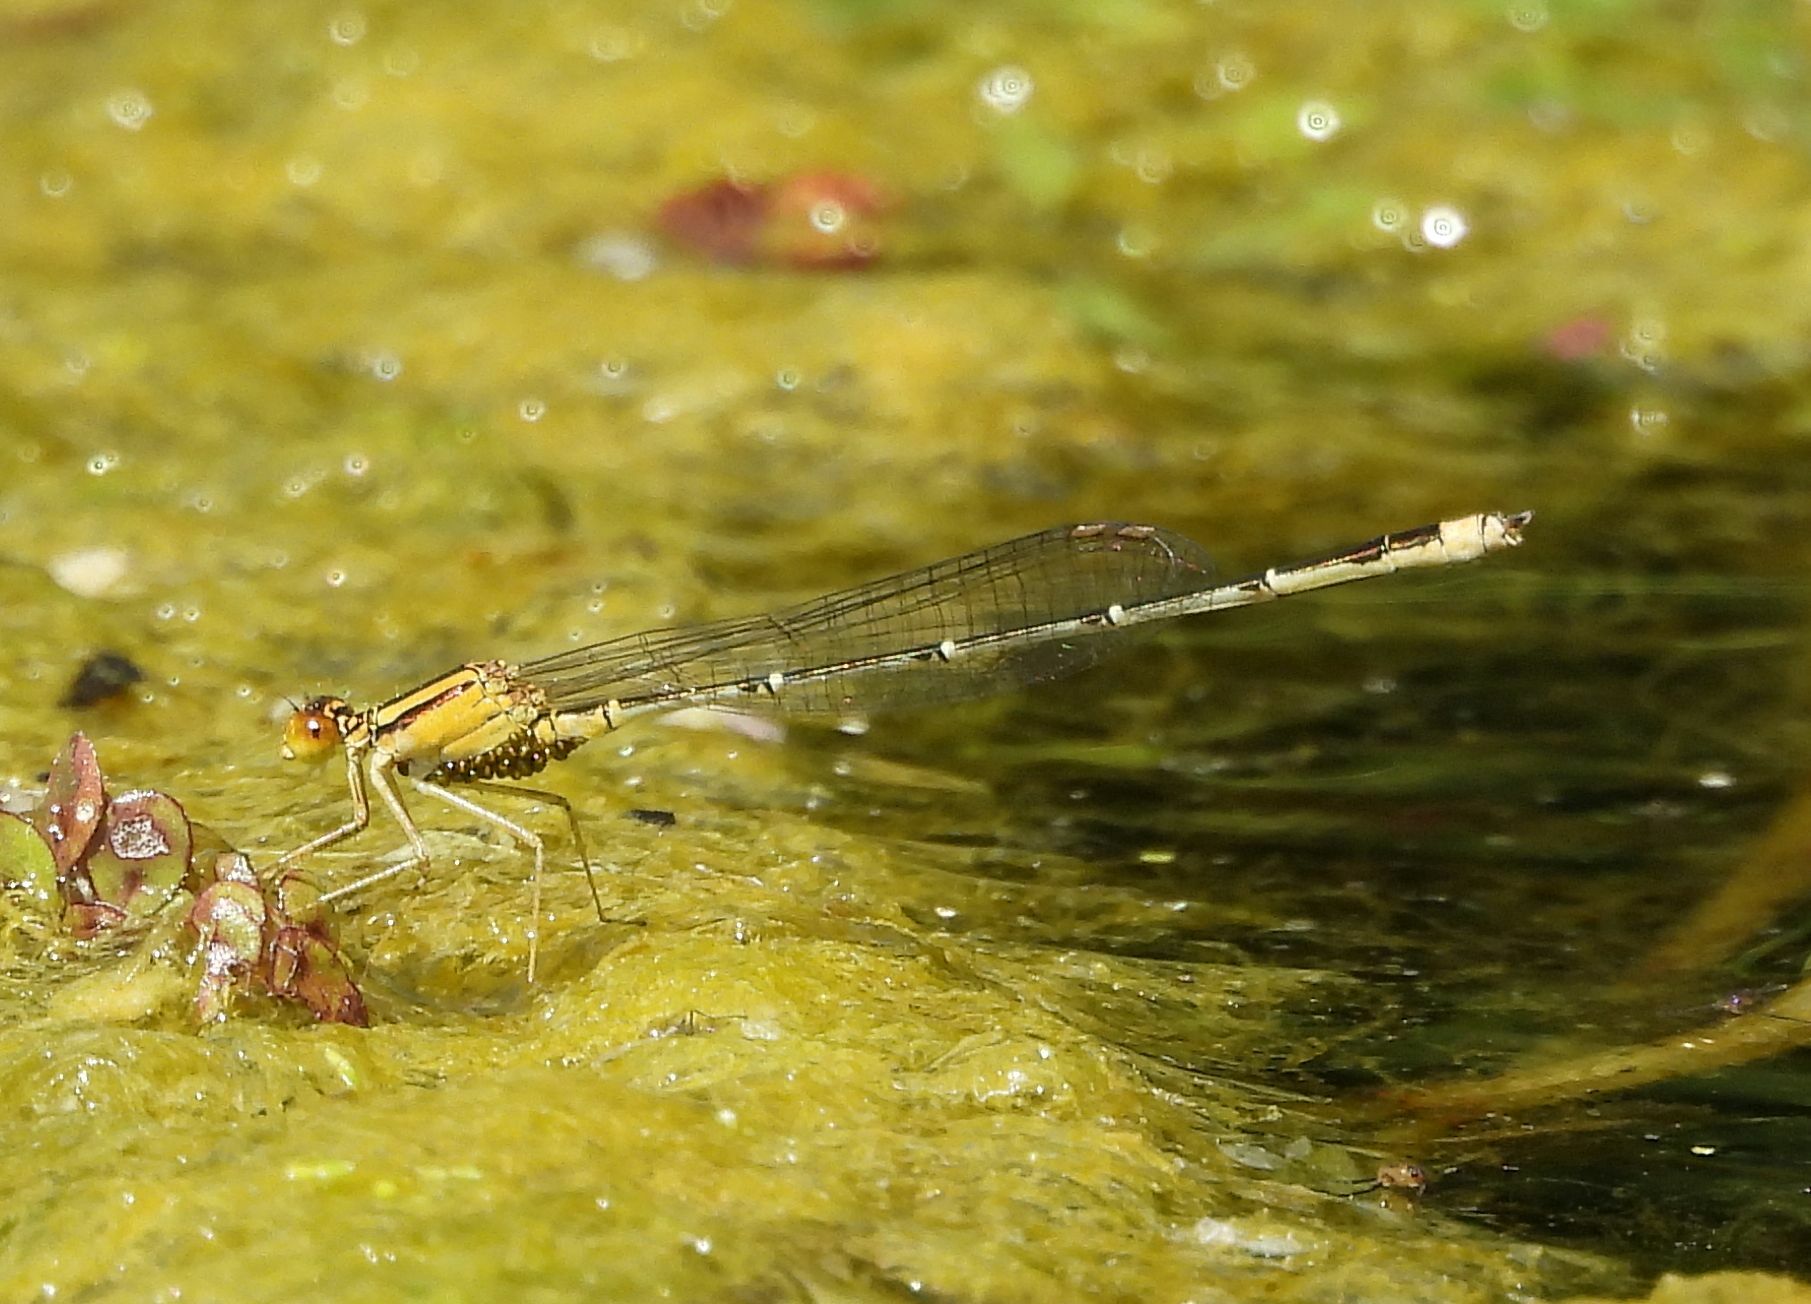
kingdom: Animalia
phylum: Arthropoda
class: Insecta
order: Odonata
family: Coenagrionidae
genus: Enallagma
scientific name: Enallagma signatum
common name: Orange bluet
